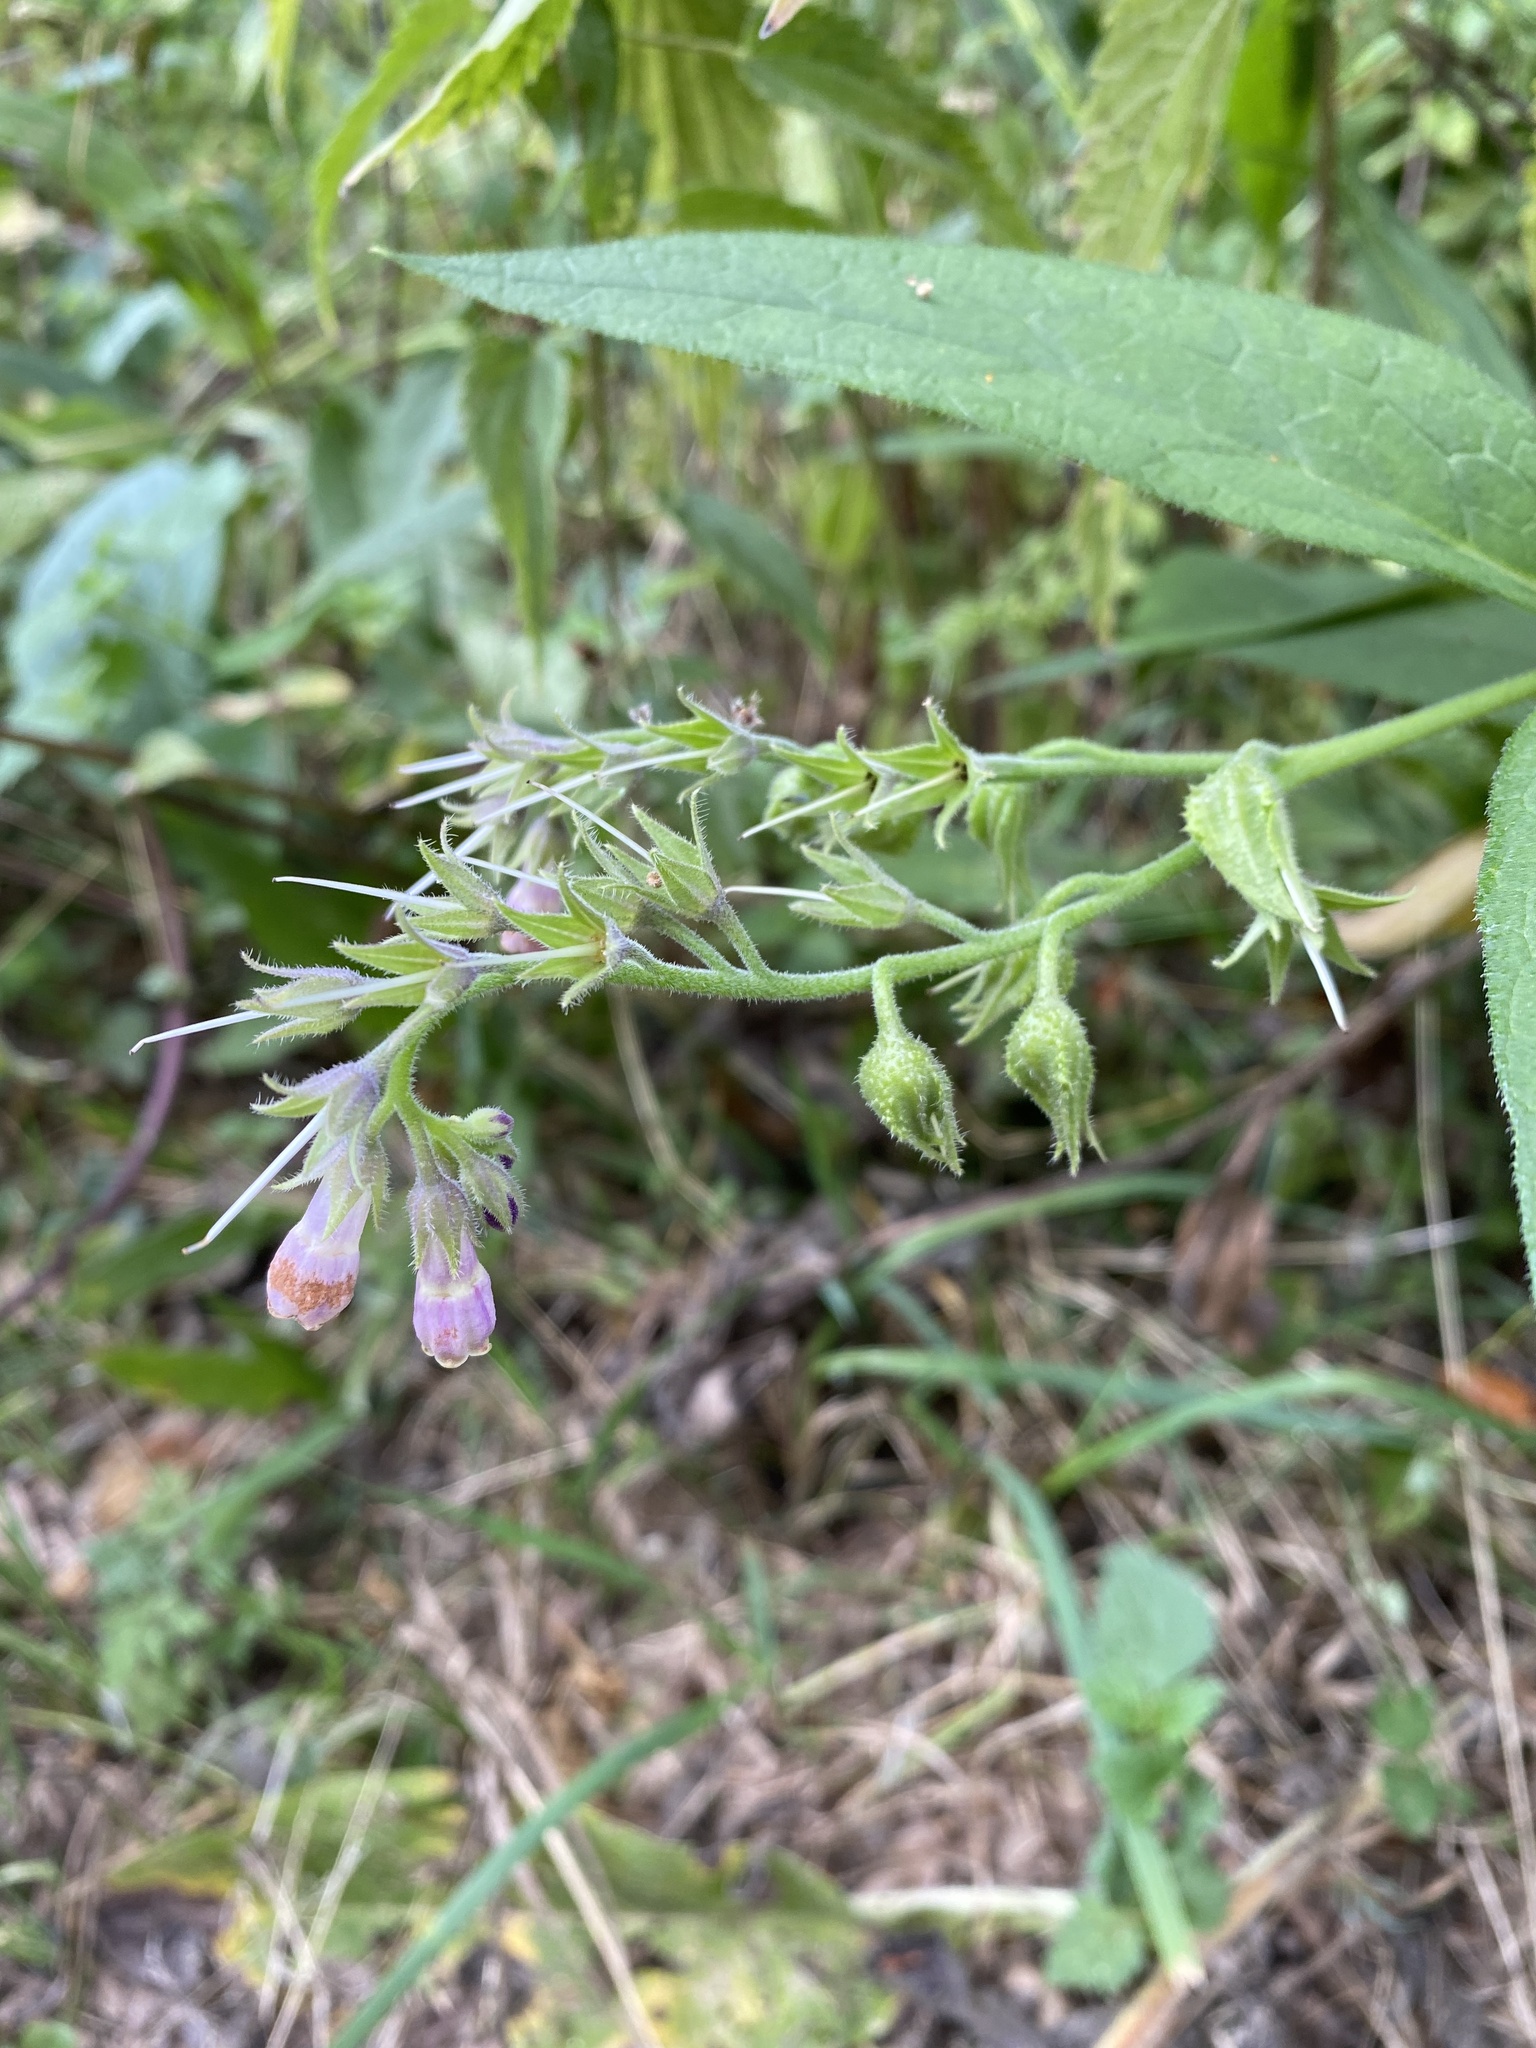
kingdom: Plantae
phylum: Tracheophyta
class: Magnoliopsida
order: Boraginales
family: Boraginaceae
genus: Symphytum
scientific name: Symphytum officinale
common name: Common comfrey
